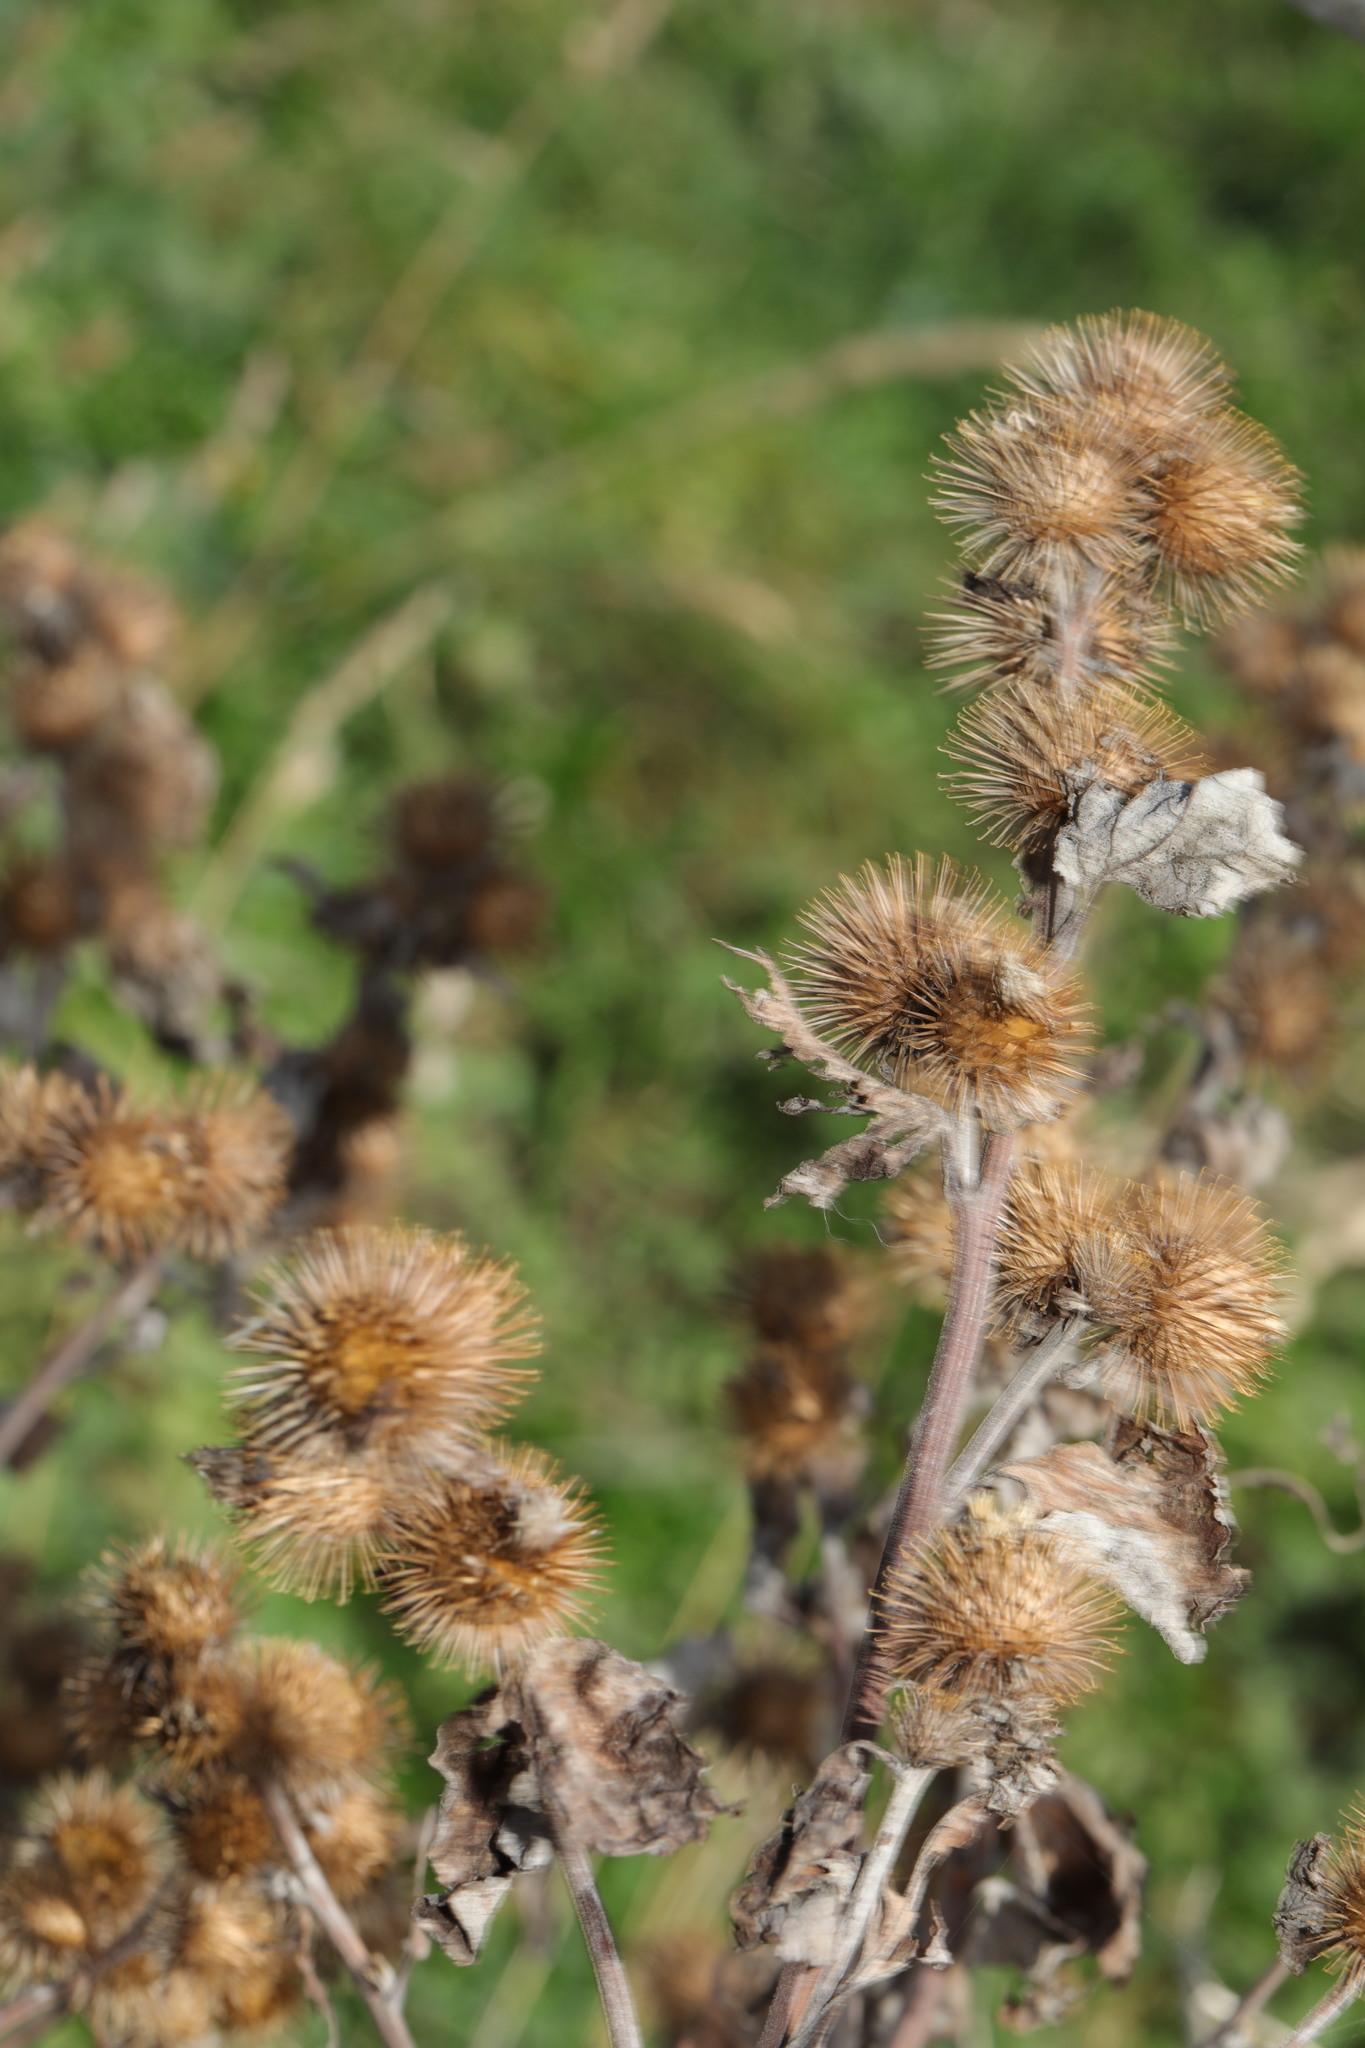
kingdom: Plantae
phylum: Tracheophyta
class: Magnoliopsida
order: Asterales
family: Asteraceae
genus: Arctium
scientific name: Arctium minus
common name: Lesser burdock
